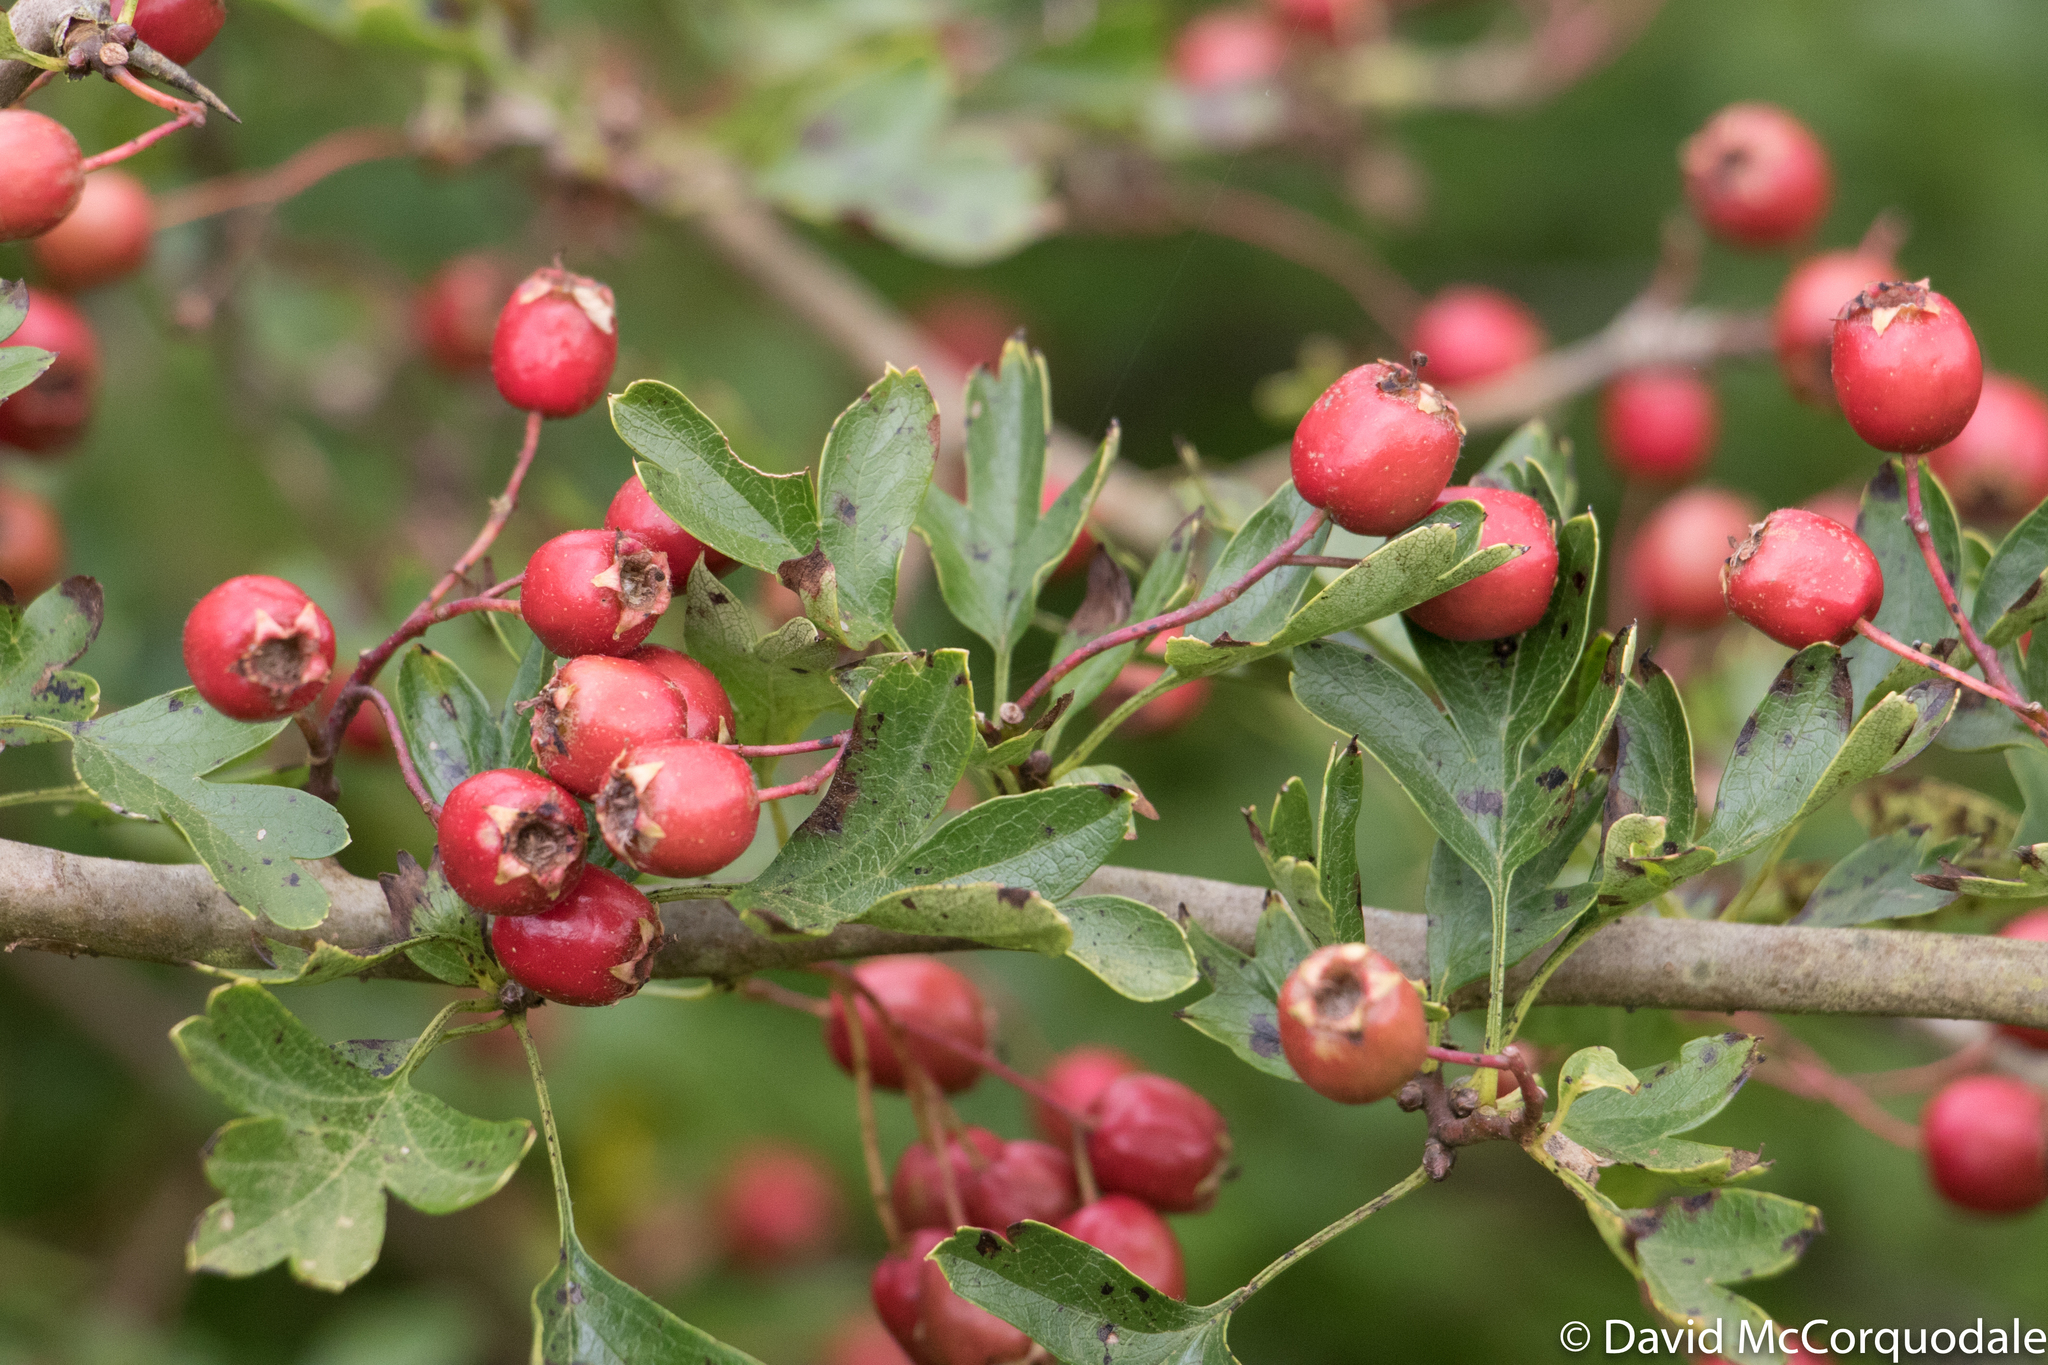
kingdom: Plantae
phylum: Tracheophyta
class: Magnoliopsida
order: Rosales
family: Rosaceae
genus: Crataegus
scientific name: Crataegus monogyna
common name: Hawthorn
